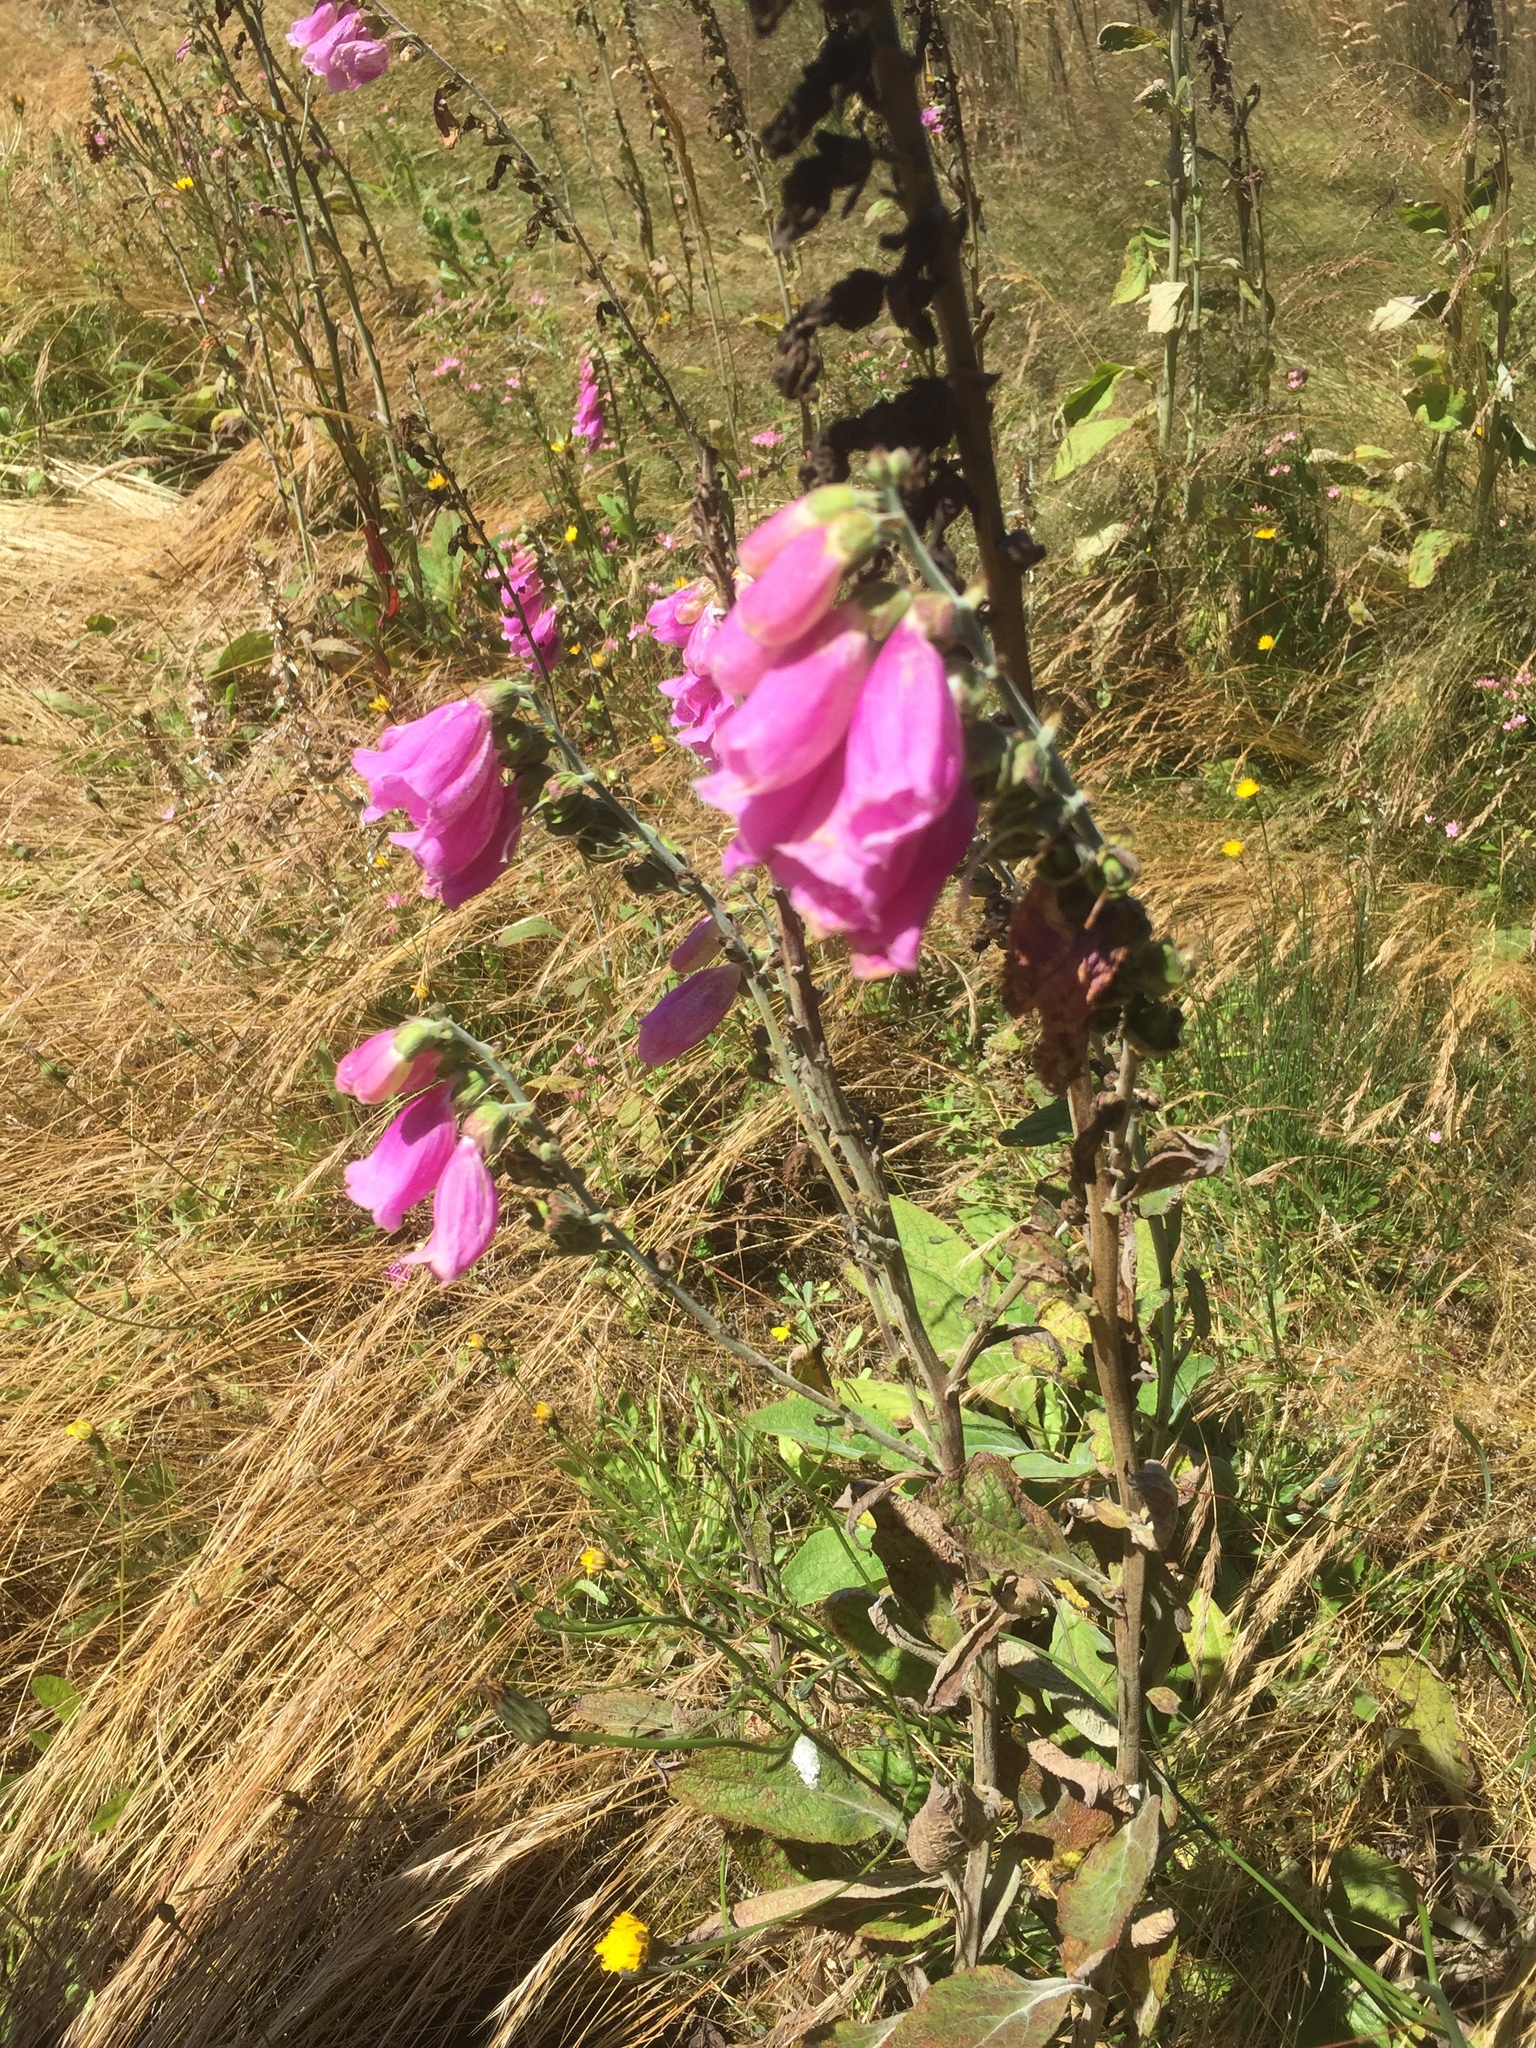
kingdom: Plantae
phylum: Tracheophyta
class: Magnoliopsida
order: Lamiales
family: Plantaginaceae
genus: Digitalis
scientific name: Digitalis purpurea
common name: Foxglove
